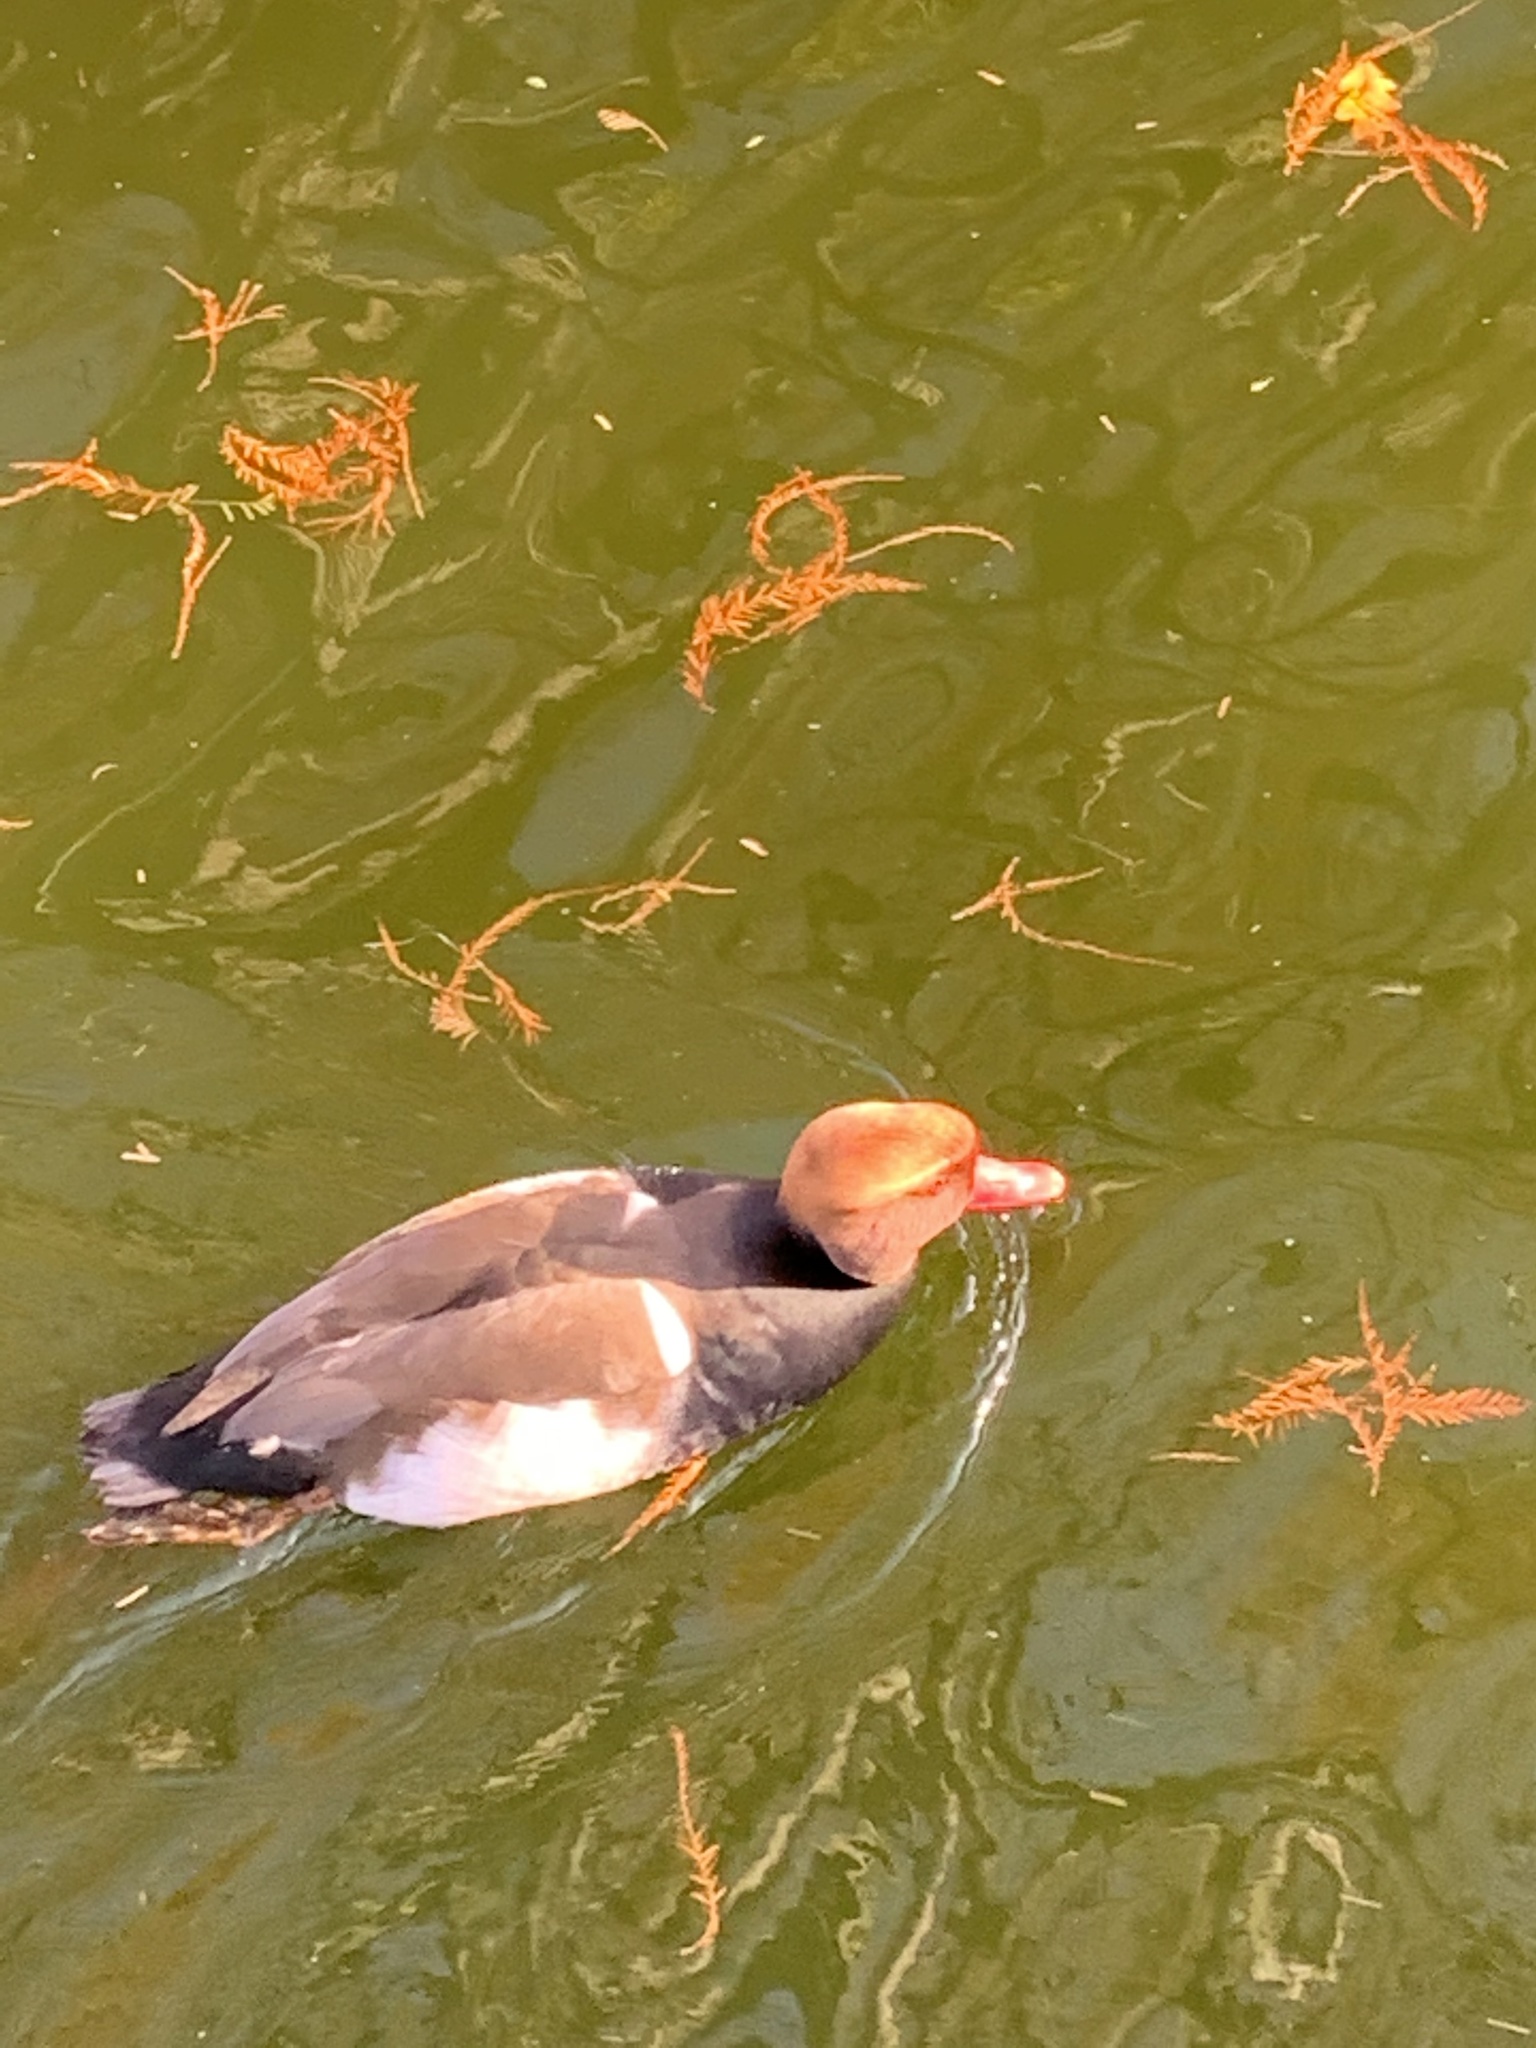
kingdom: Animalia
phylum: Chordata
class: Aves
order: Anseriformes
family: Anatidae
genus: Netta
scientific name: Netta rufina
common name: Red-crested pochard
